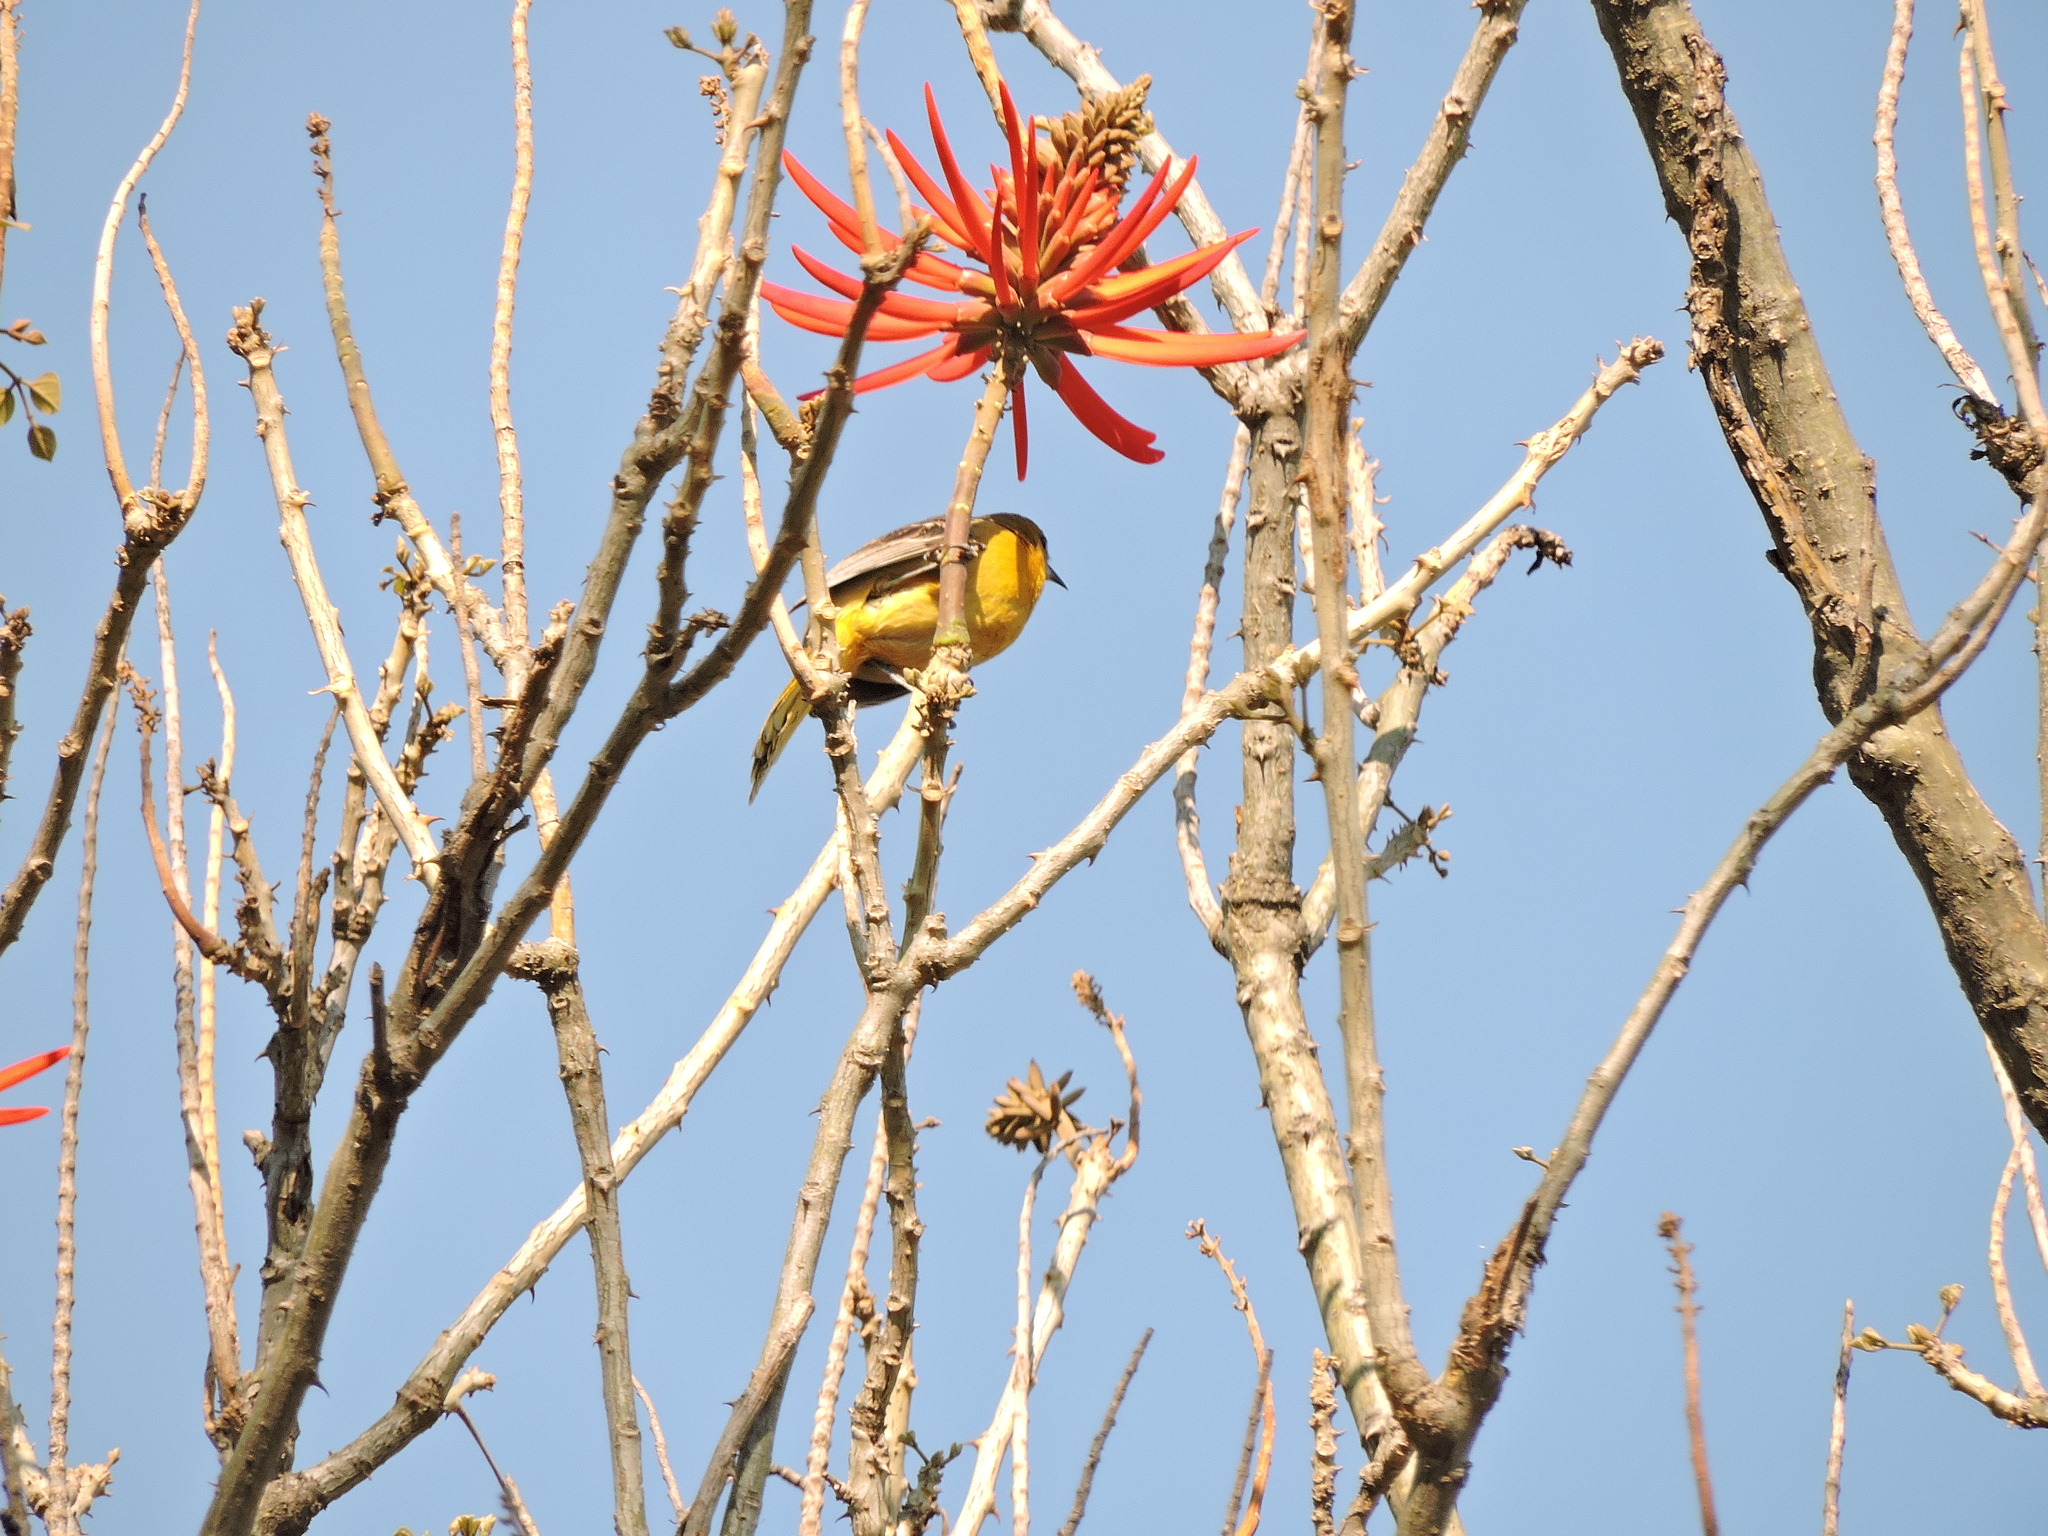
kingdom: Animalia
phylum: Chordata
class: Aves
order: Passeriformes
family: Icteridae
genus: Icterus
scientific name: Icterus abeillei
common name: Black-backed oriole
